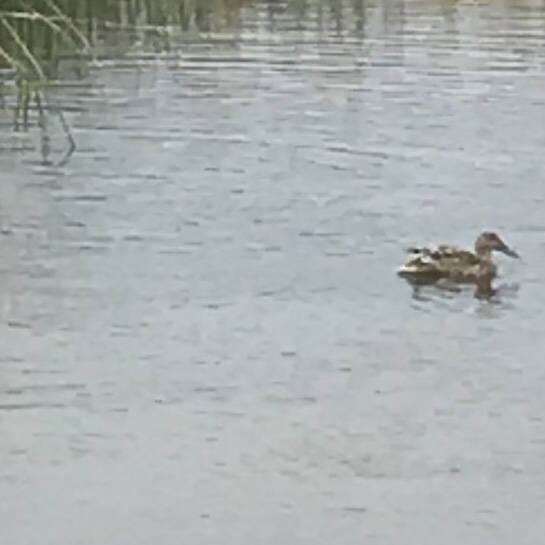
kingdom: Animalia
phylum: Chordata
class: Aves
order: Anseriformes
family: Anatidae
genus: Spatula
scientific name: Spatula clypeata
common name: Northern shoveler
